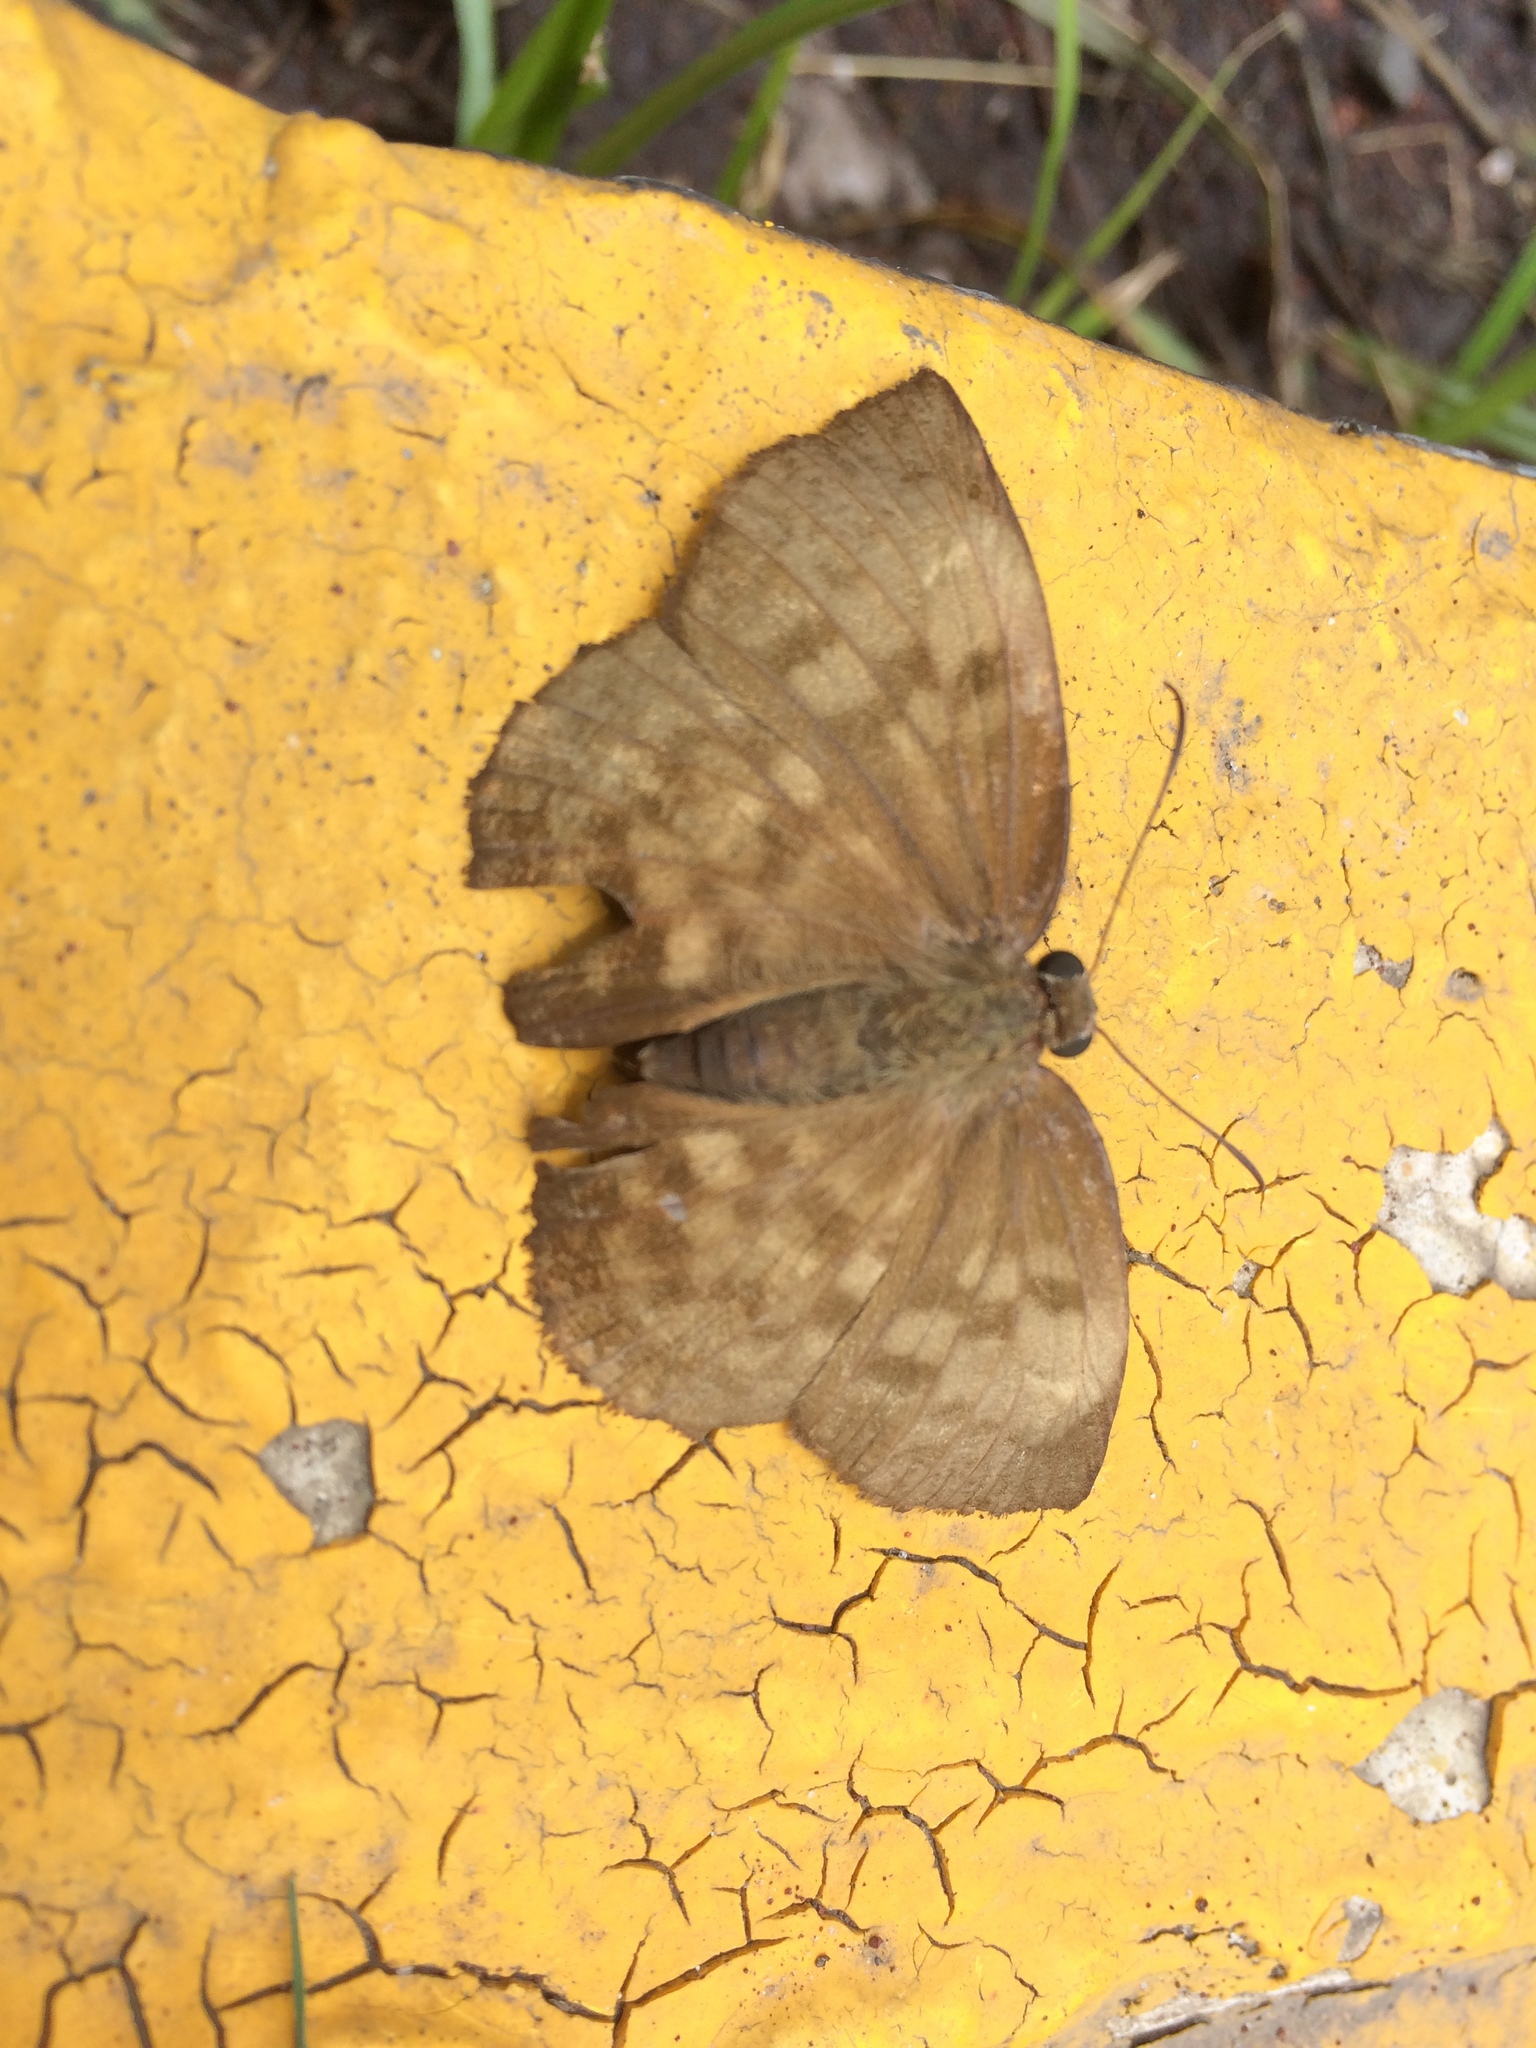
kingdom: Animalia
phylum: Arthropoda
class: Insecta
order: Lepidoptera
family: Hesperiidae
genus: Achlyodes
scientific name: Achlyodes pallida
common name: Pale sicklewing
